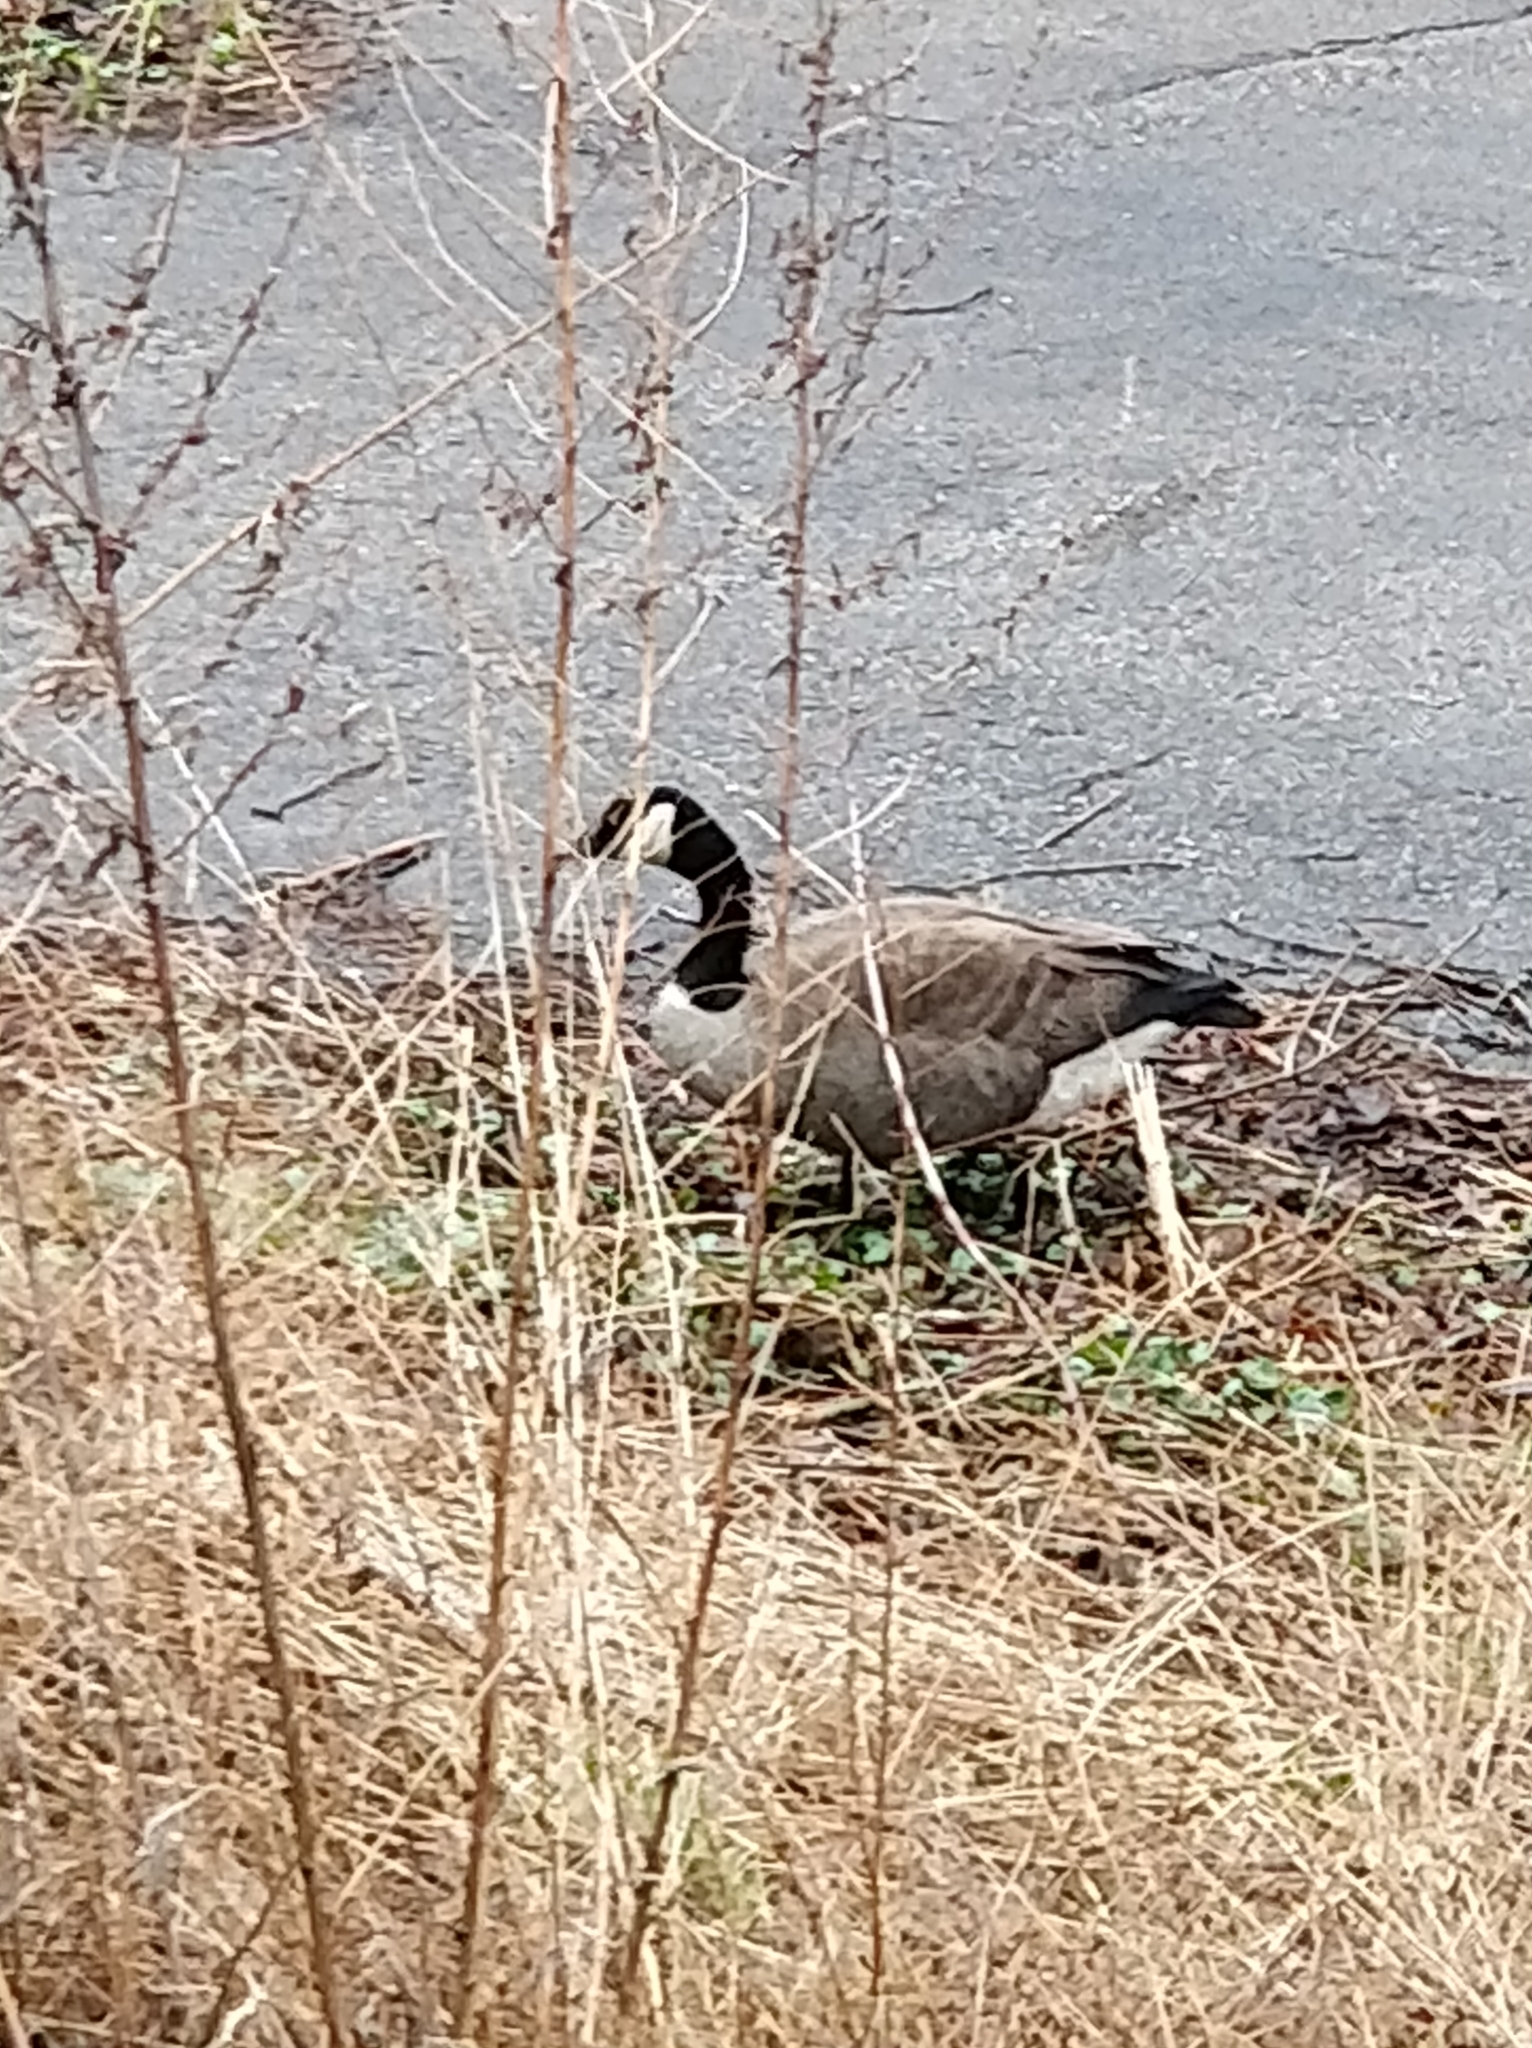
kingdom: Animalia
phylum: Chordata
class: Aves
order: Anseriformes
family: Anatidae
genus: Branta
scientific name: Branta canadensis
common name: Canada goose
